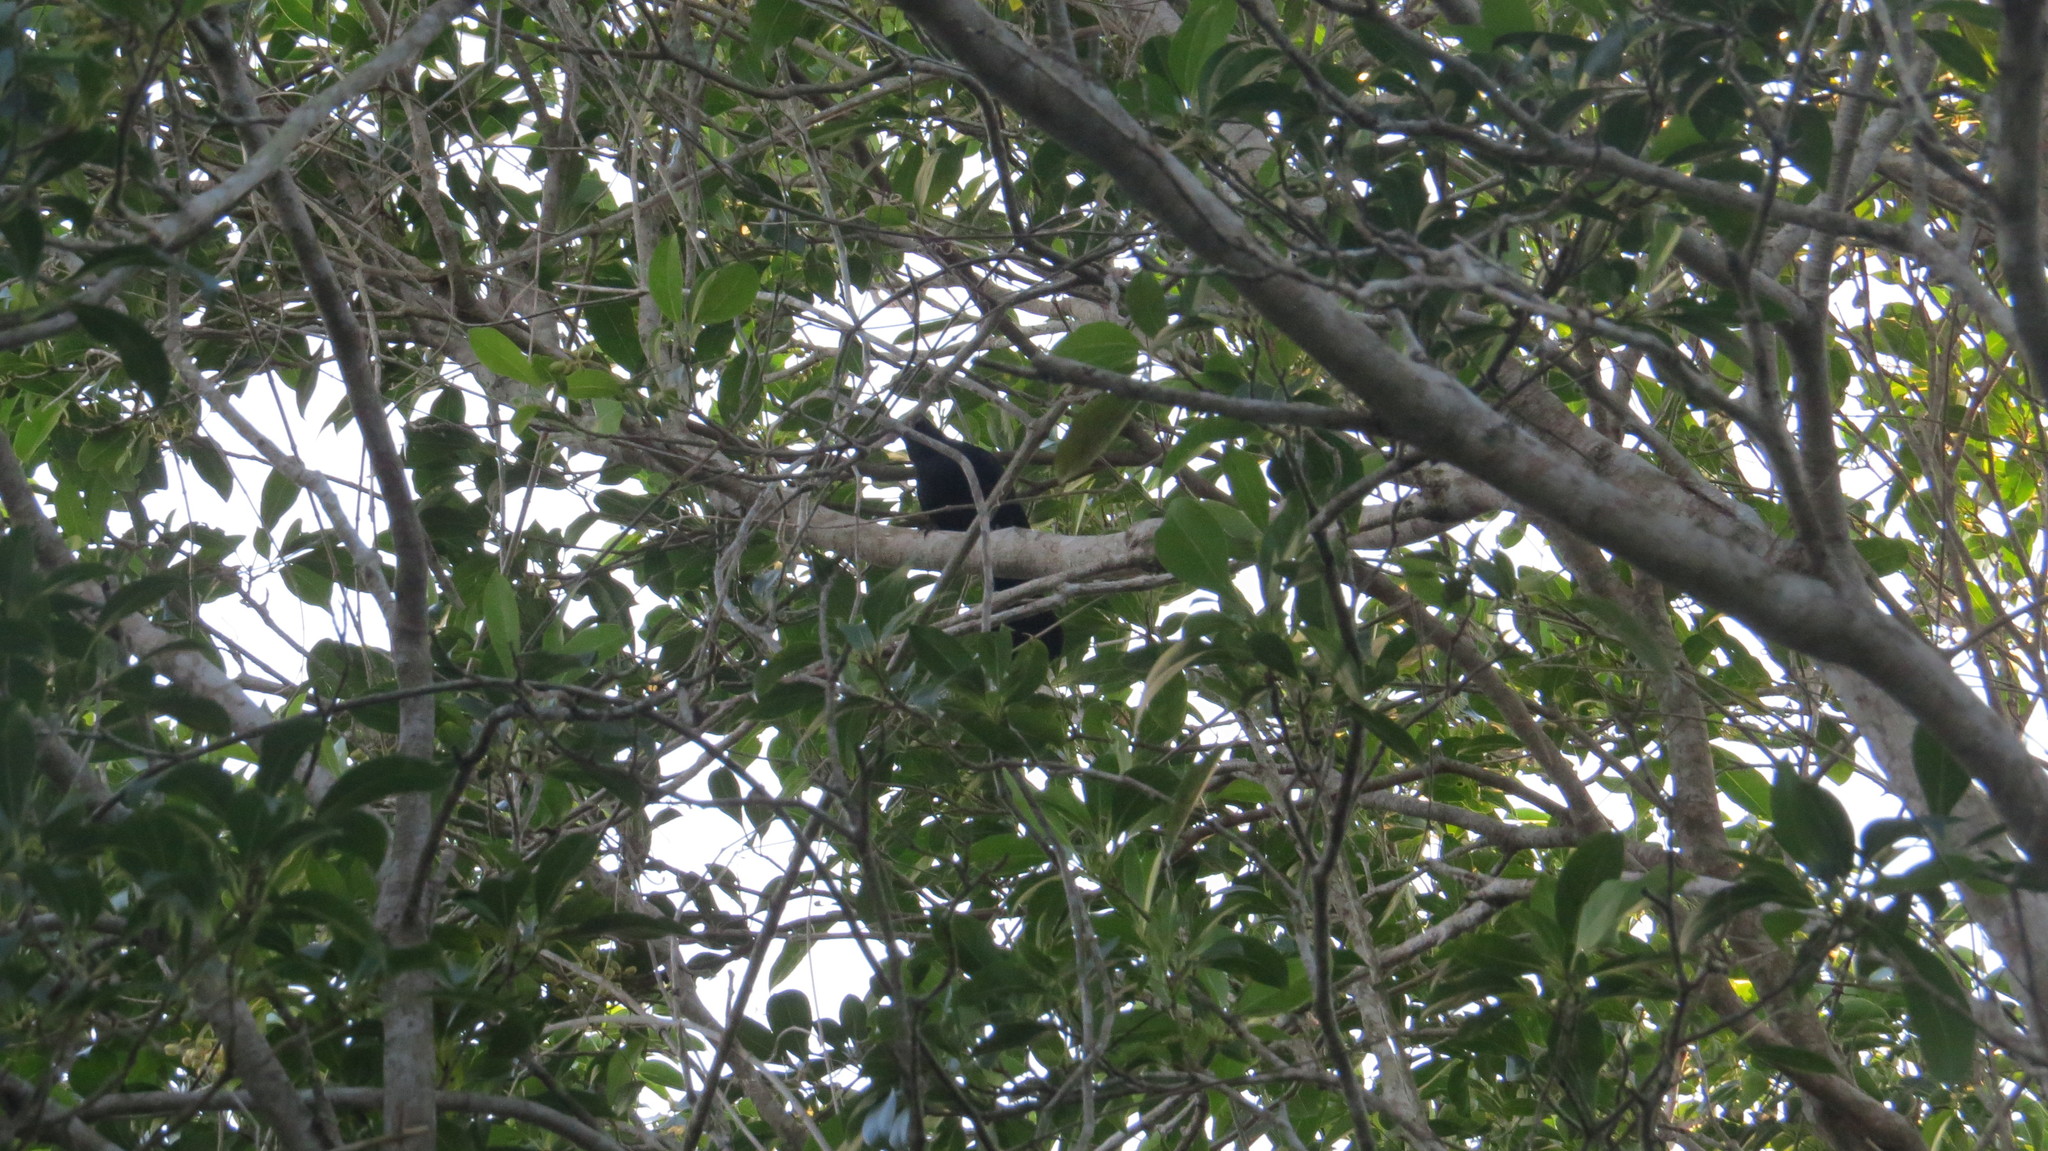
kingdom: Animalia
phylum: Chordata
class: Aves
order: Passeriformes
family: Mimidae
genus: Melanoptila
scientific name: Melanoptila glabrirostris
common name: Black catbird
